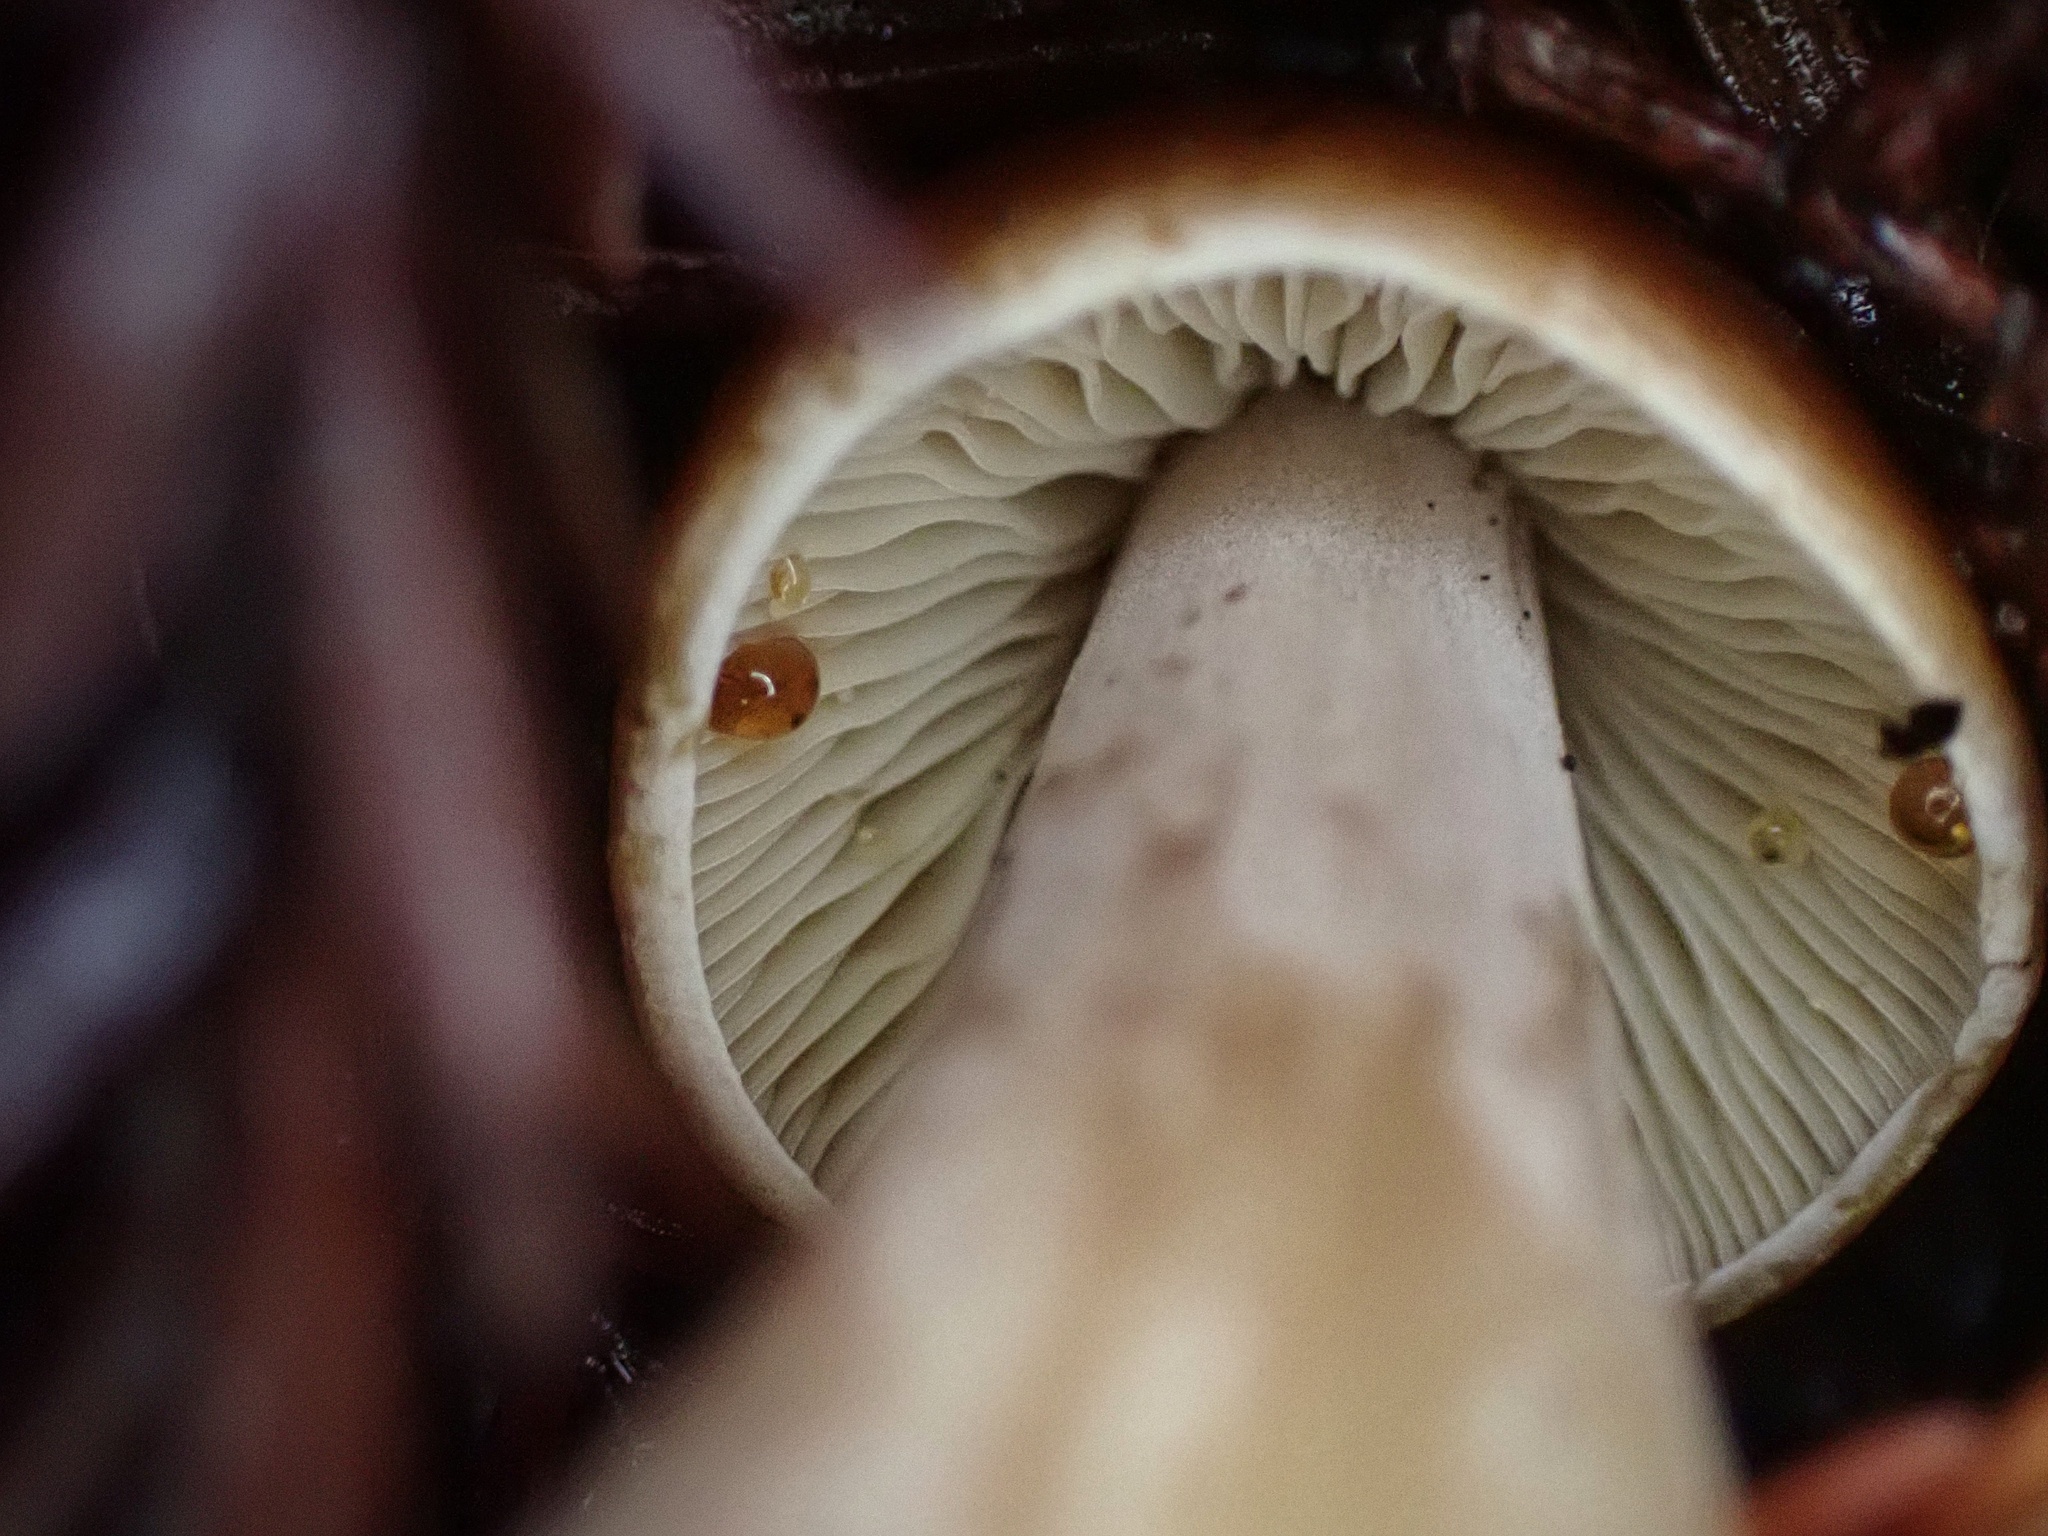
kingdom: Fungi
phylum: Basidiomycota
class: Agaricomycetes
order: Agaricales
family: Tricholomataceae
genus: Caulorhiza
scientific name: Caulorhiza umbonata
